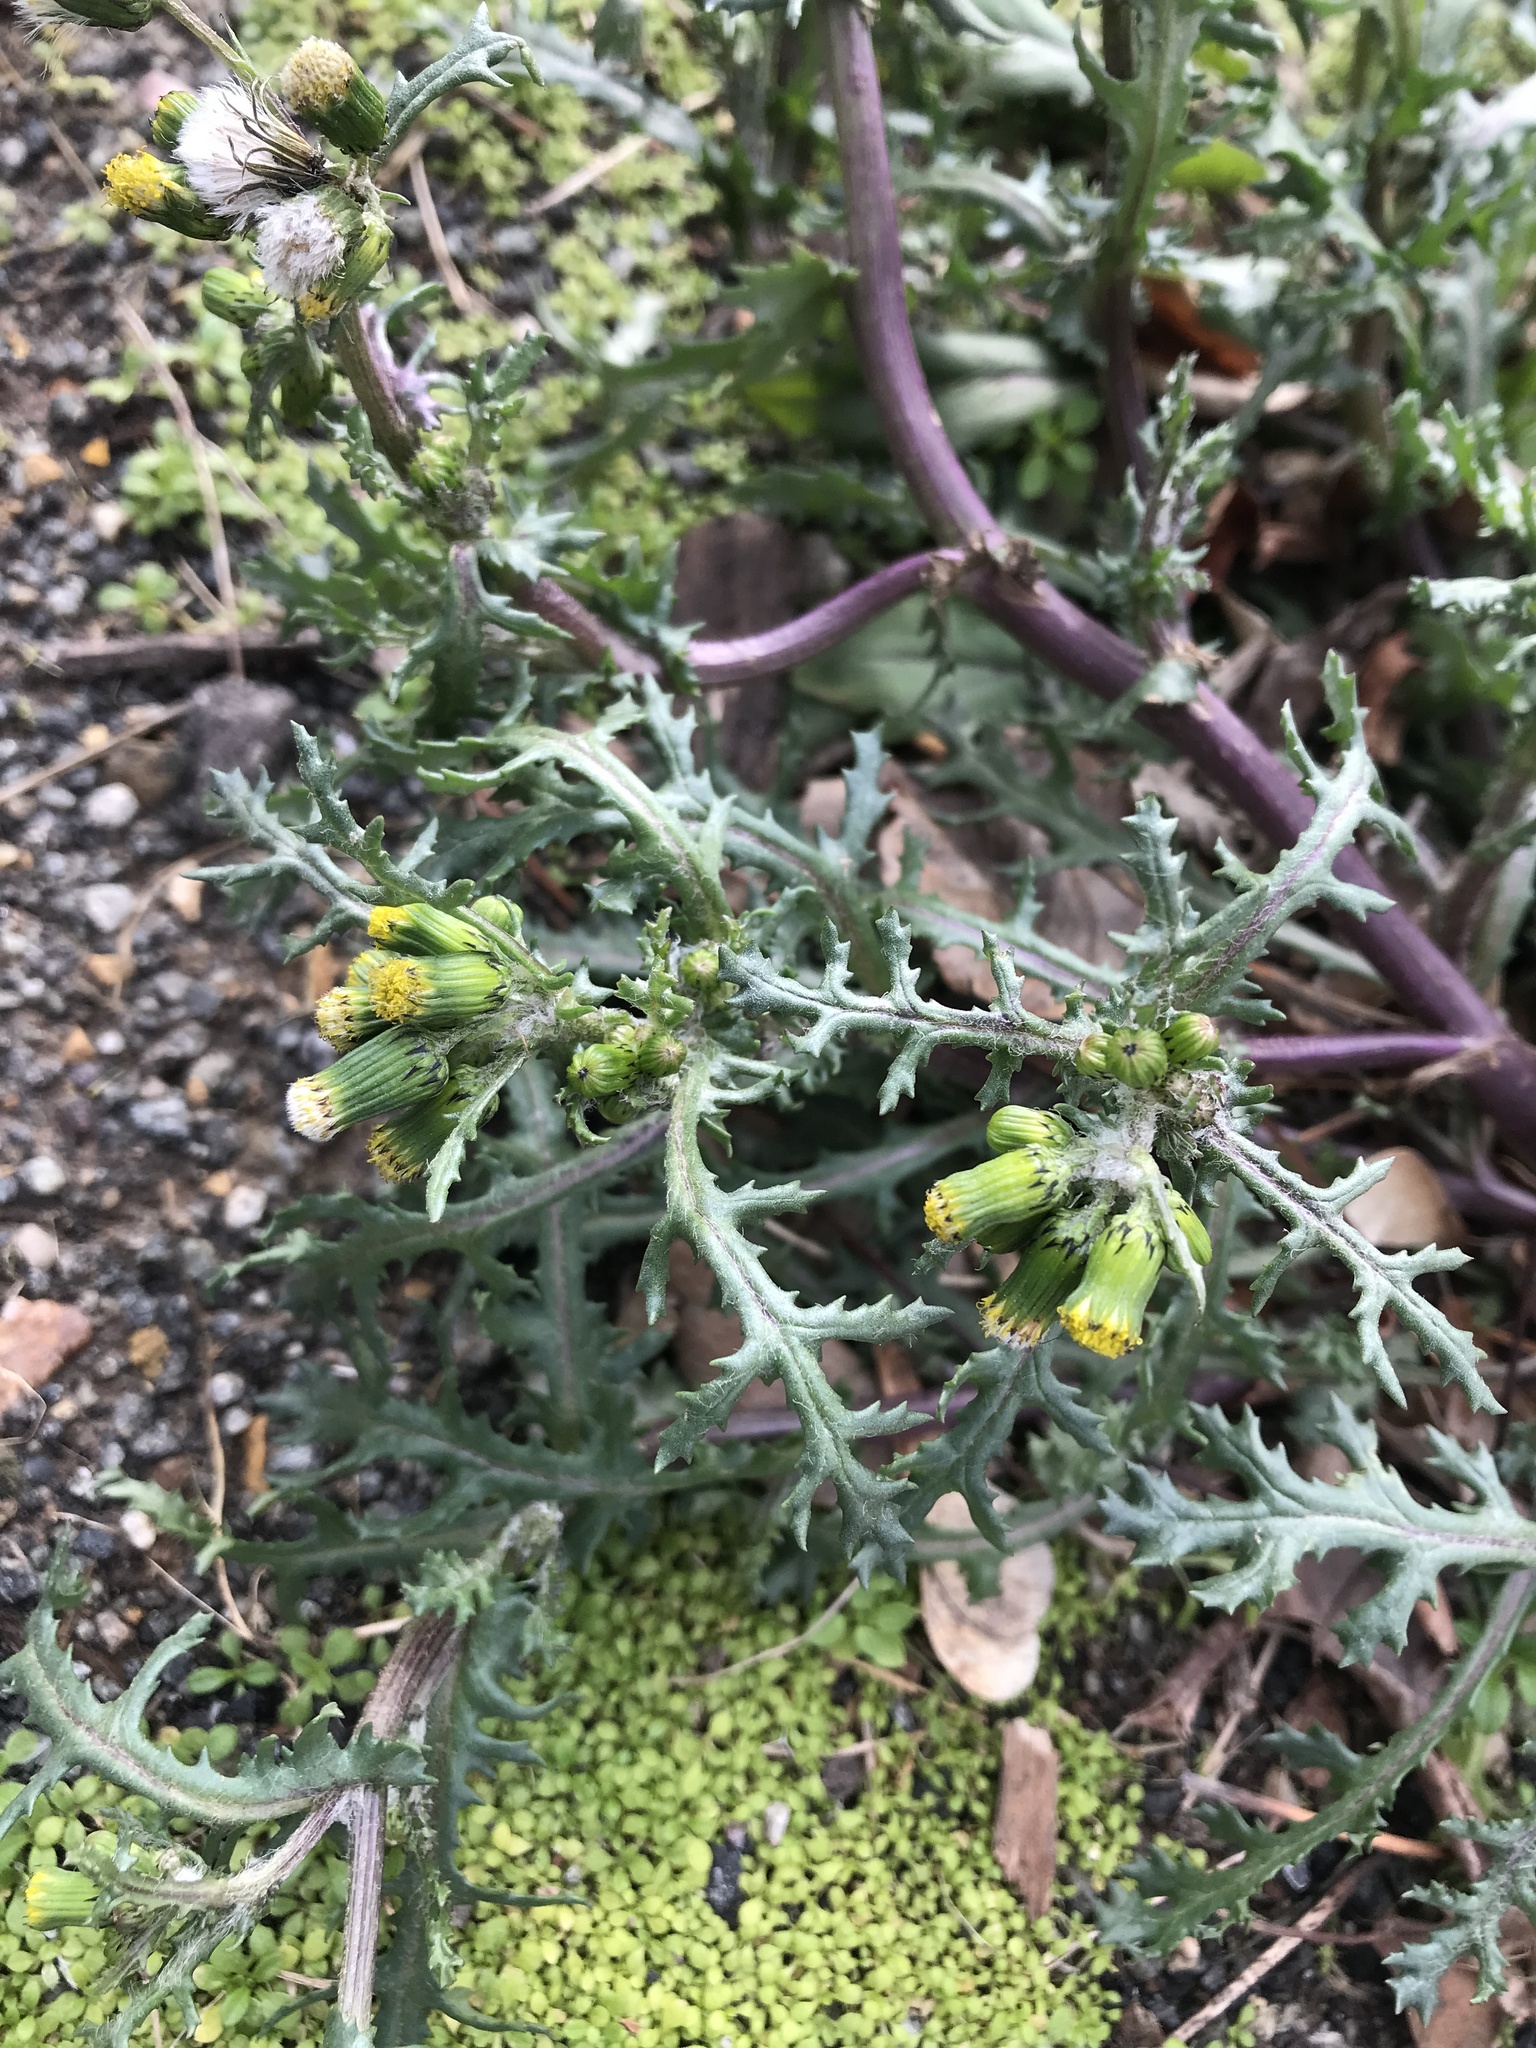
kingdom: Plantae
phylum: Tracheophyta
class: Magnoliopsida
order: Asterales
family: Asteraceae
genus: Senecio
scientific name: Senecio vulgaris
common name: Old-man-in-the-spring
